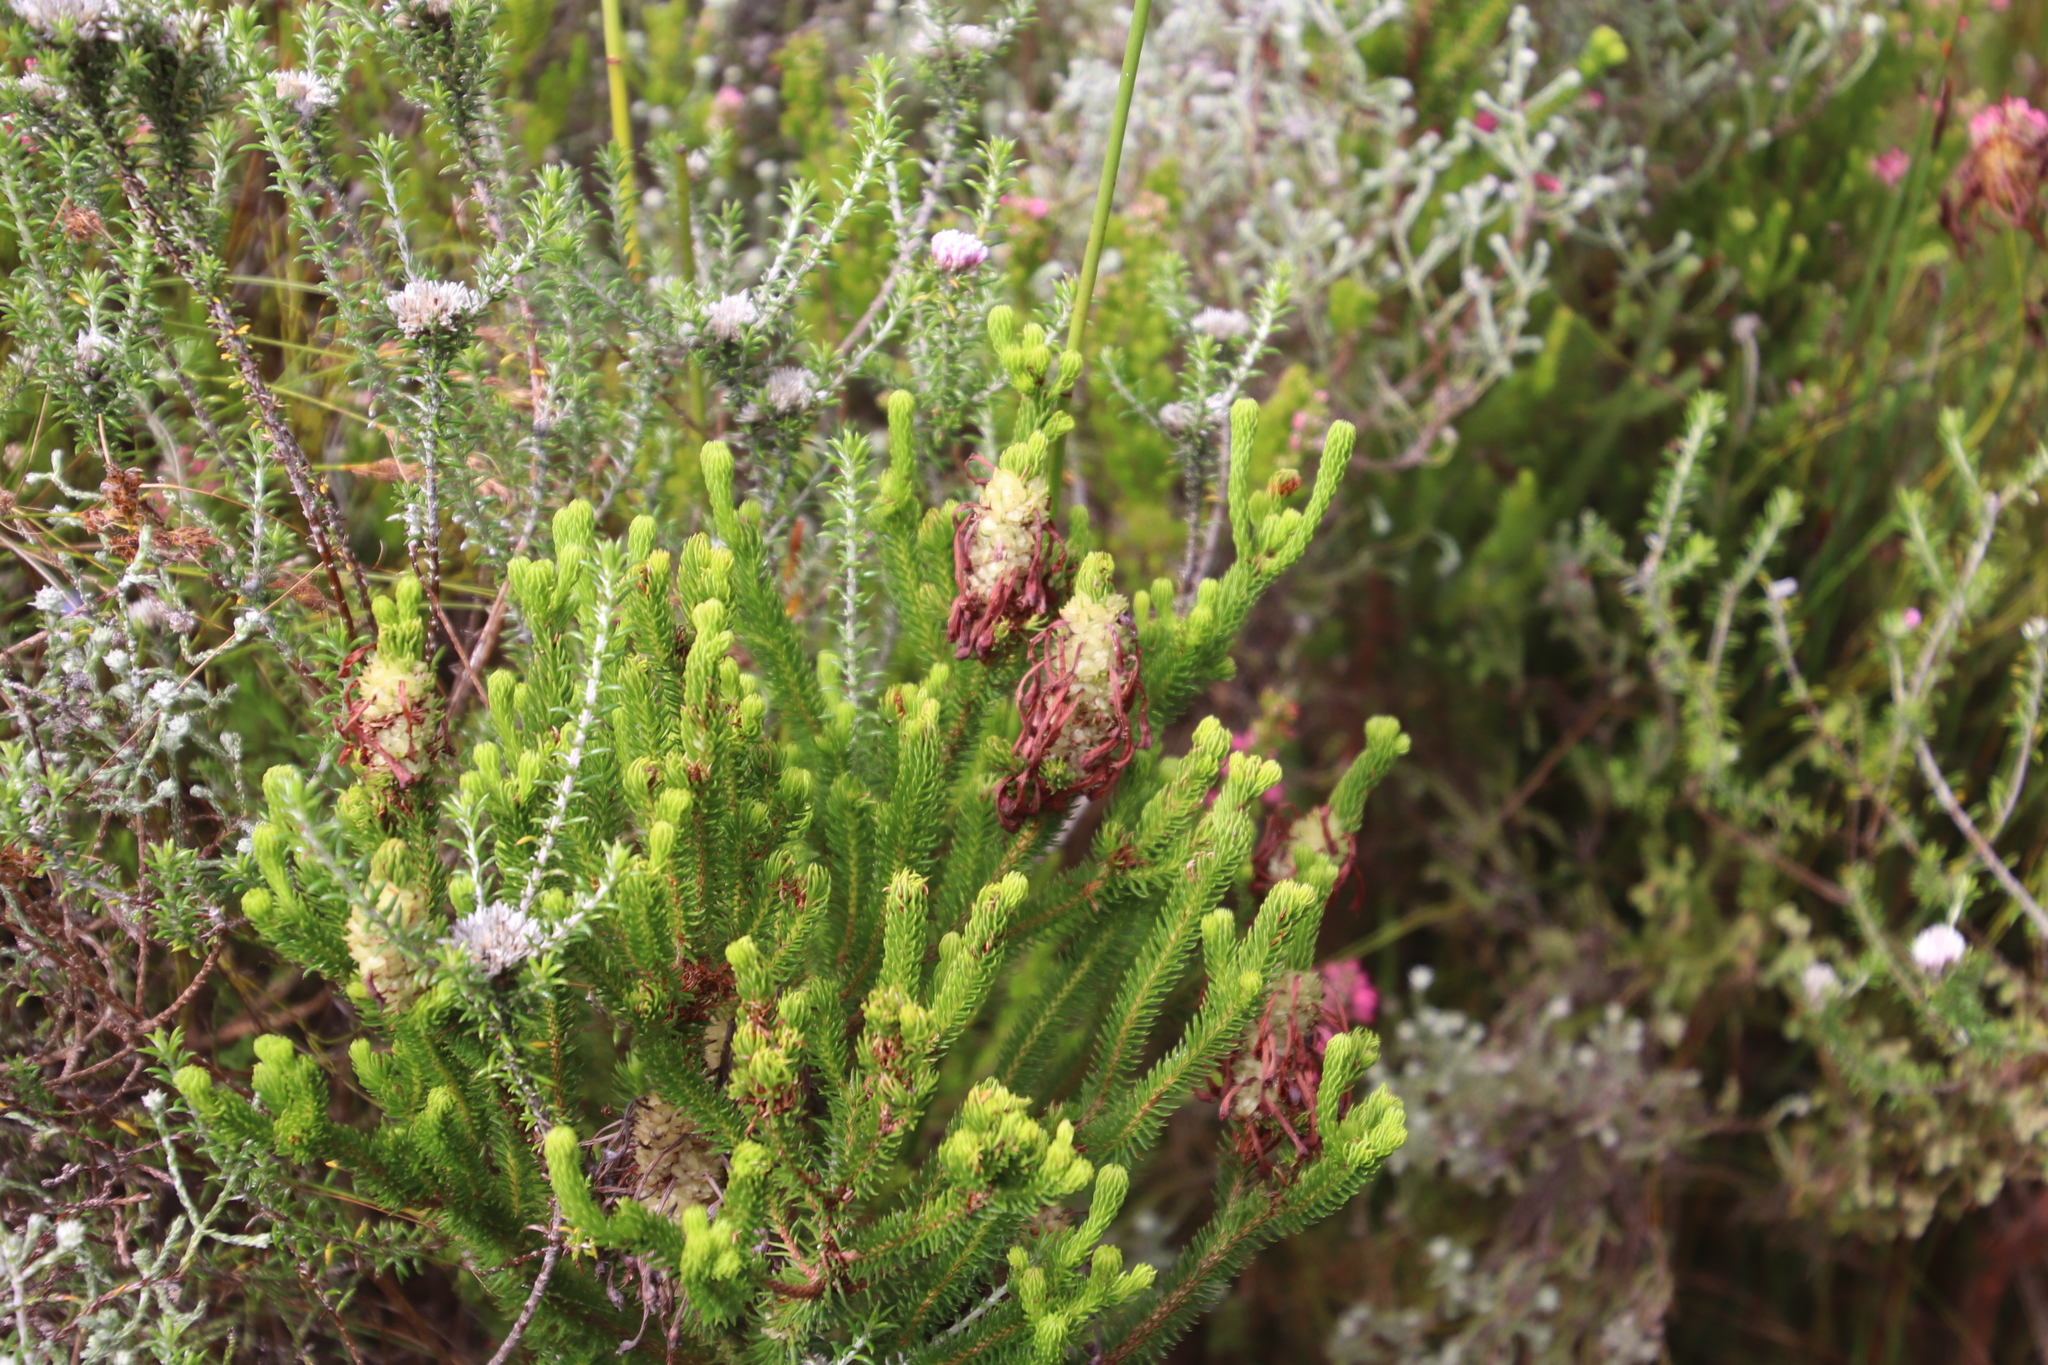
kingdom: Plantae
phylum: Tracheophyta
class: Magnoliopsida
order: Ericales
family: Ericaceae
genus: Erica
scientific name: Erica sessiliflora
